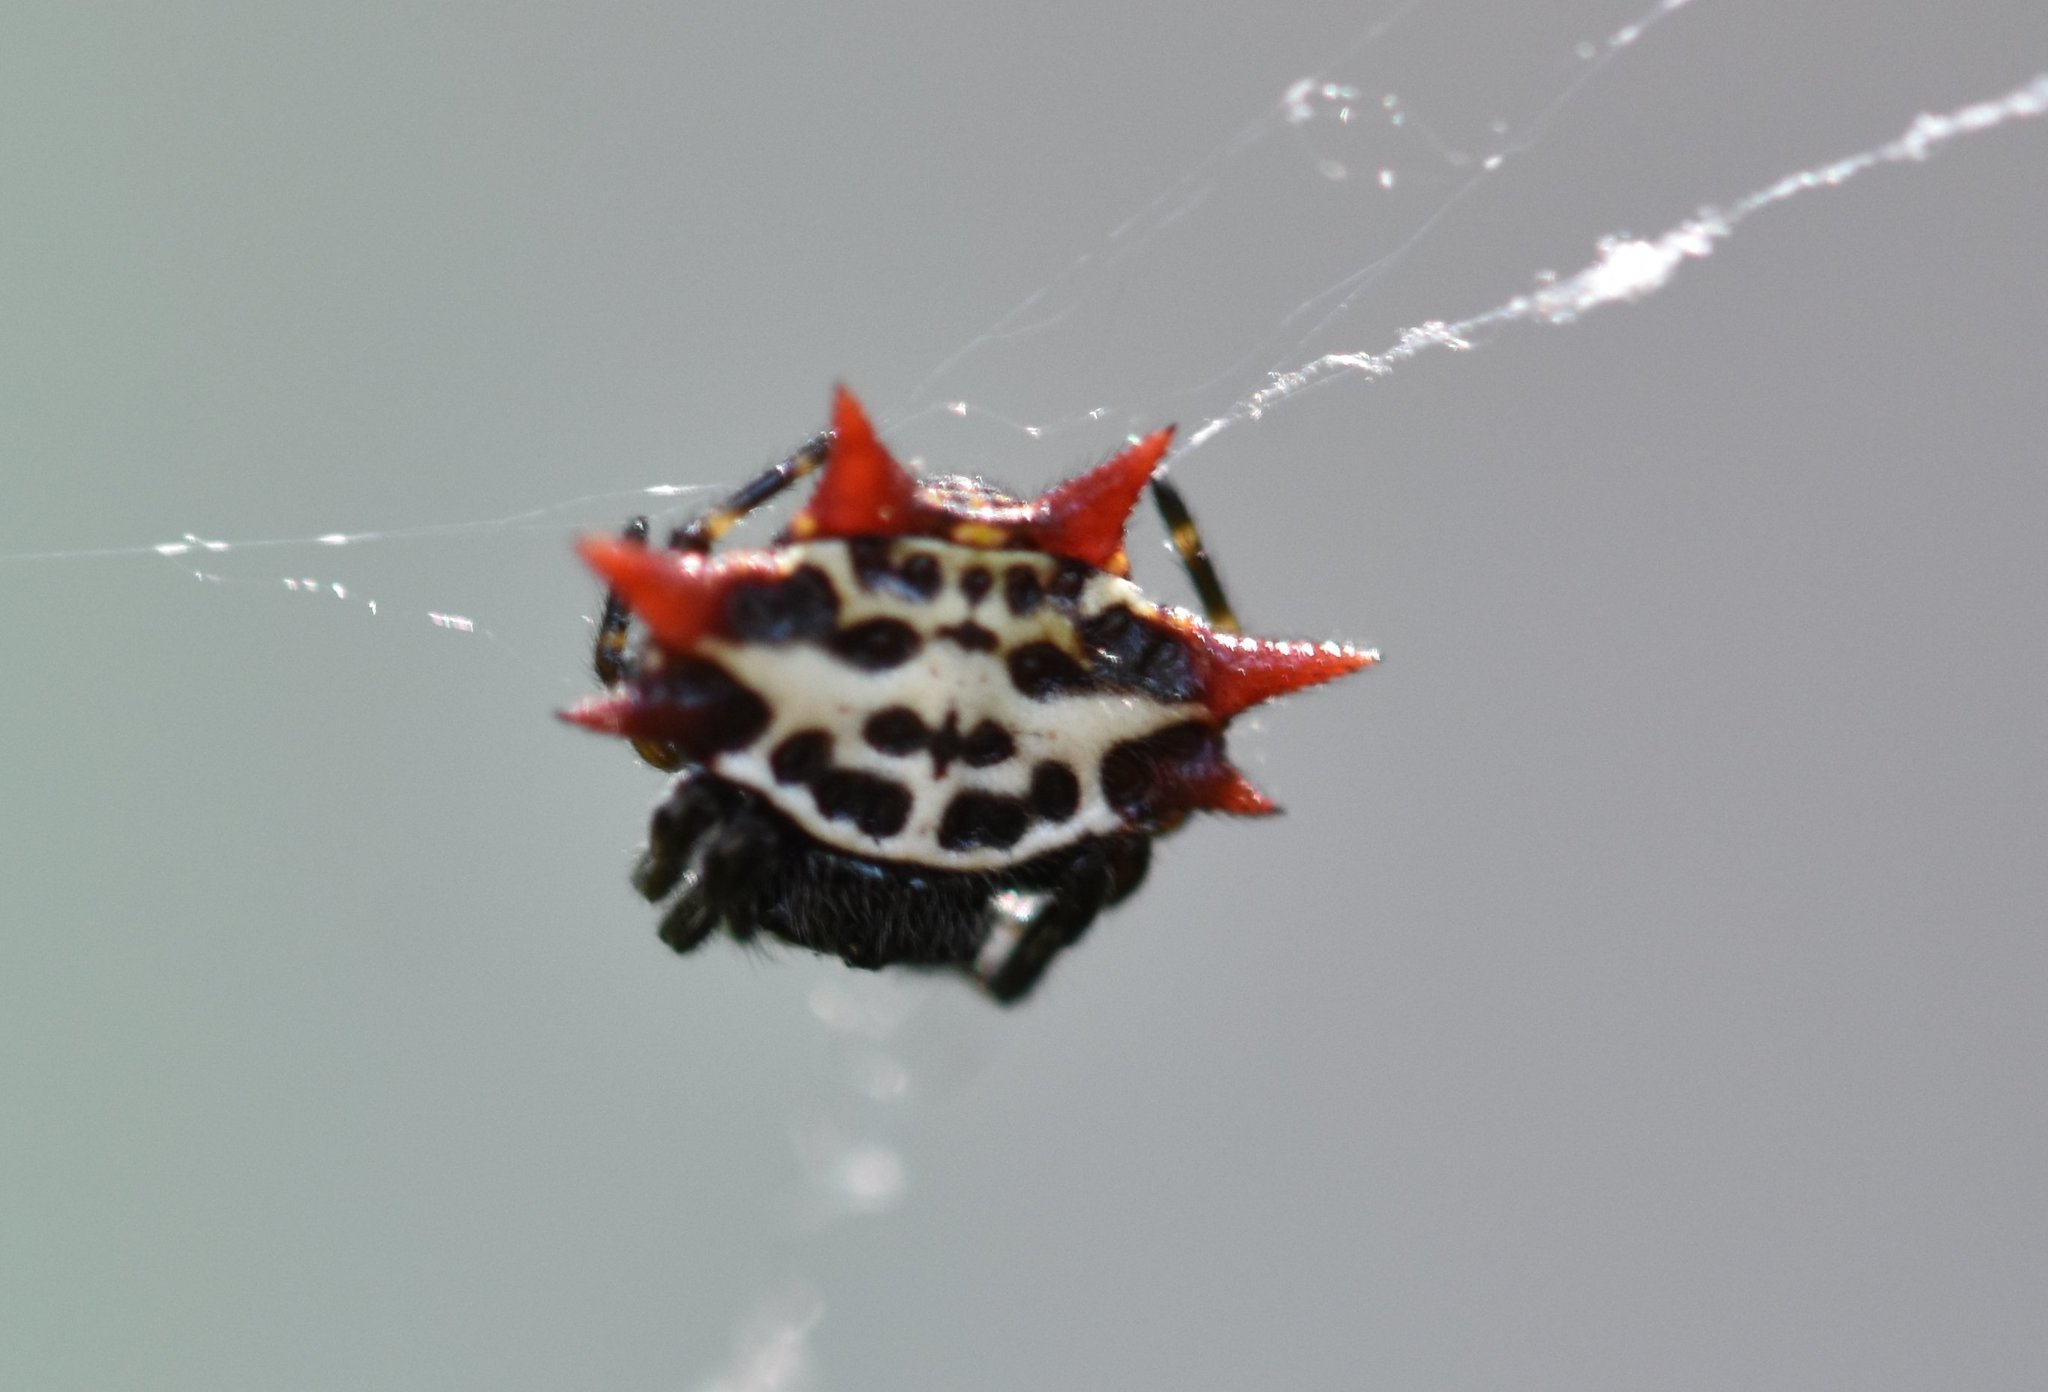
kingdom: Animalia
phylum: Arthropoda
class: Arachnida
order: Araneae
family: Araneidae
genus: Gasteracantha
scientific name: Gasteracantha cancriformis
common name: Orb weavers
